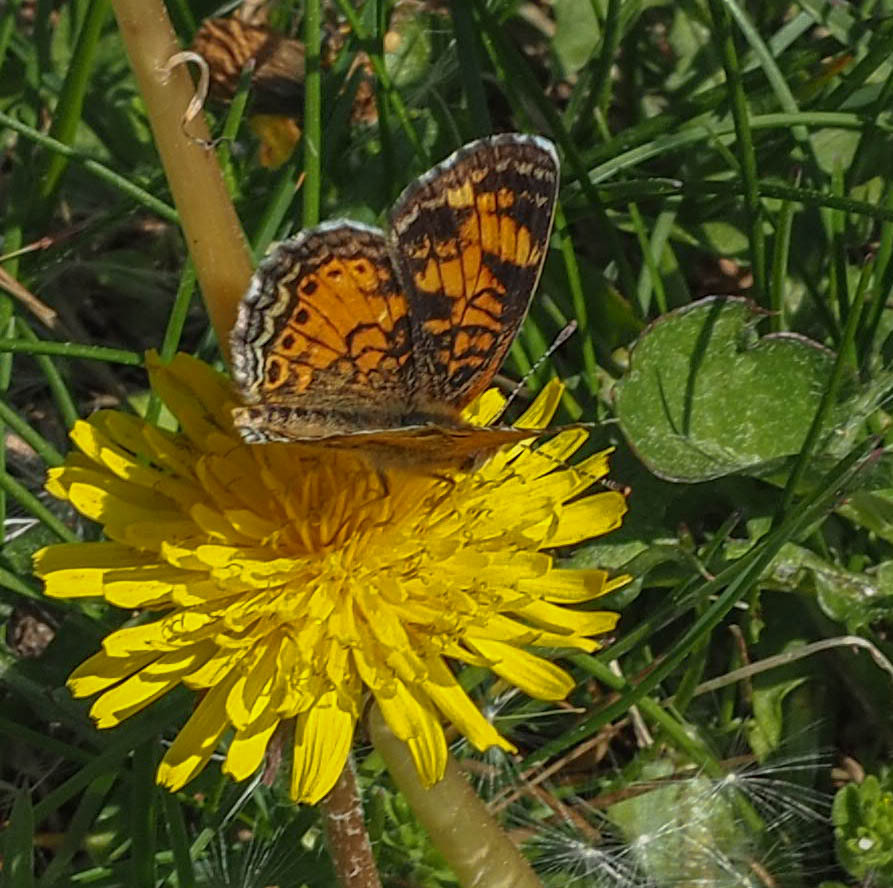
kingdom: Animalia
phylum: Arthropoda
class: Insecta
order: Lepidoptera
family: Nymphalidae
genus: Phyciodes
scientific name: Phyciodes tharos
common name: Pearl crescent
